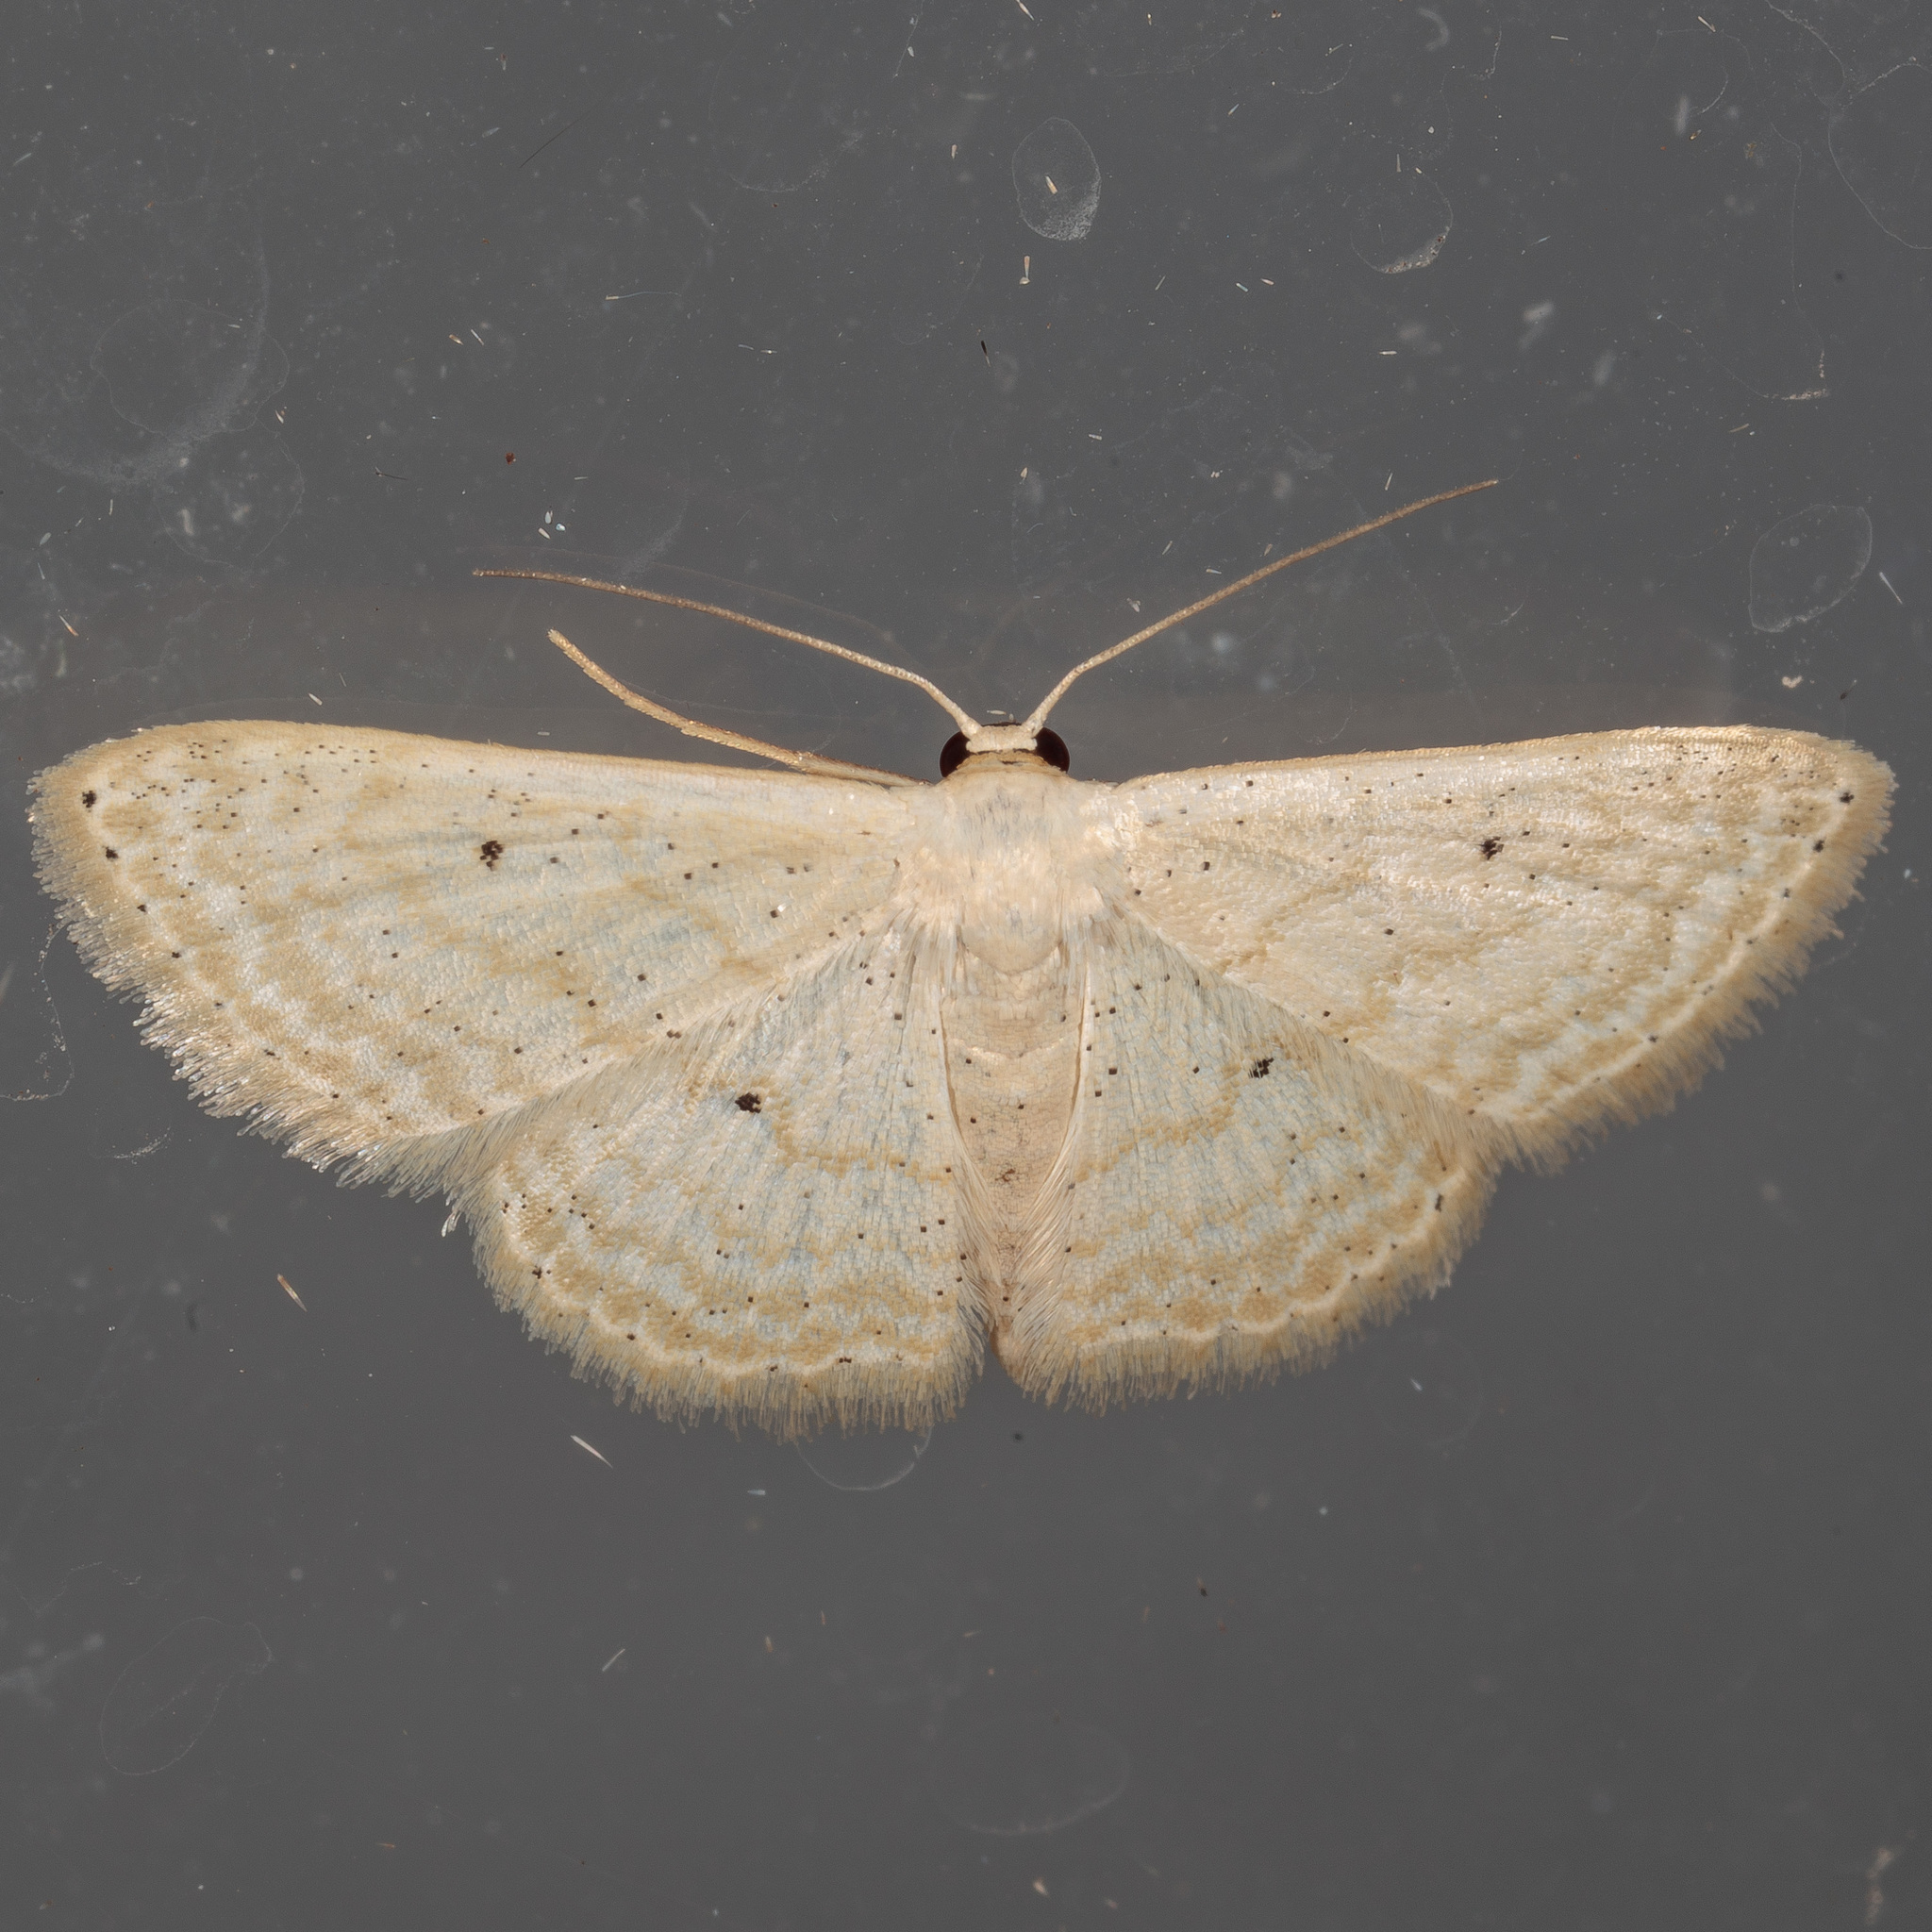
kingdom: Animalia
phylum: Arthropoda
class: Insecta
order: Lepidoptera
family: Geometridae
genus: Scopula
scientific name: Scopula benitaria
